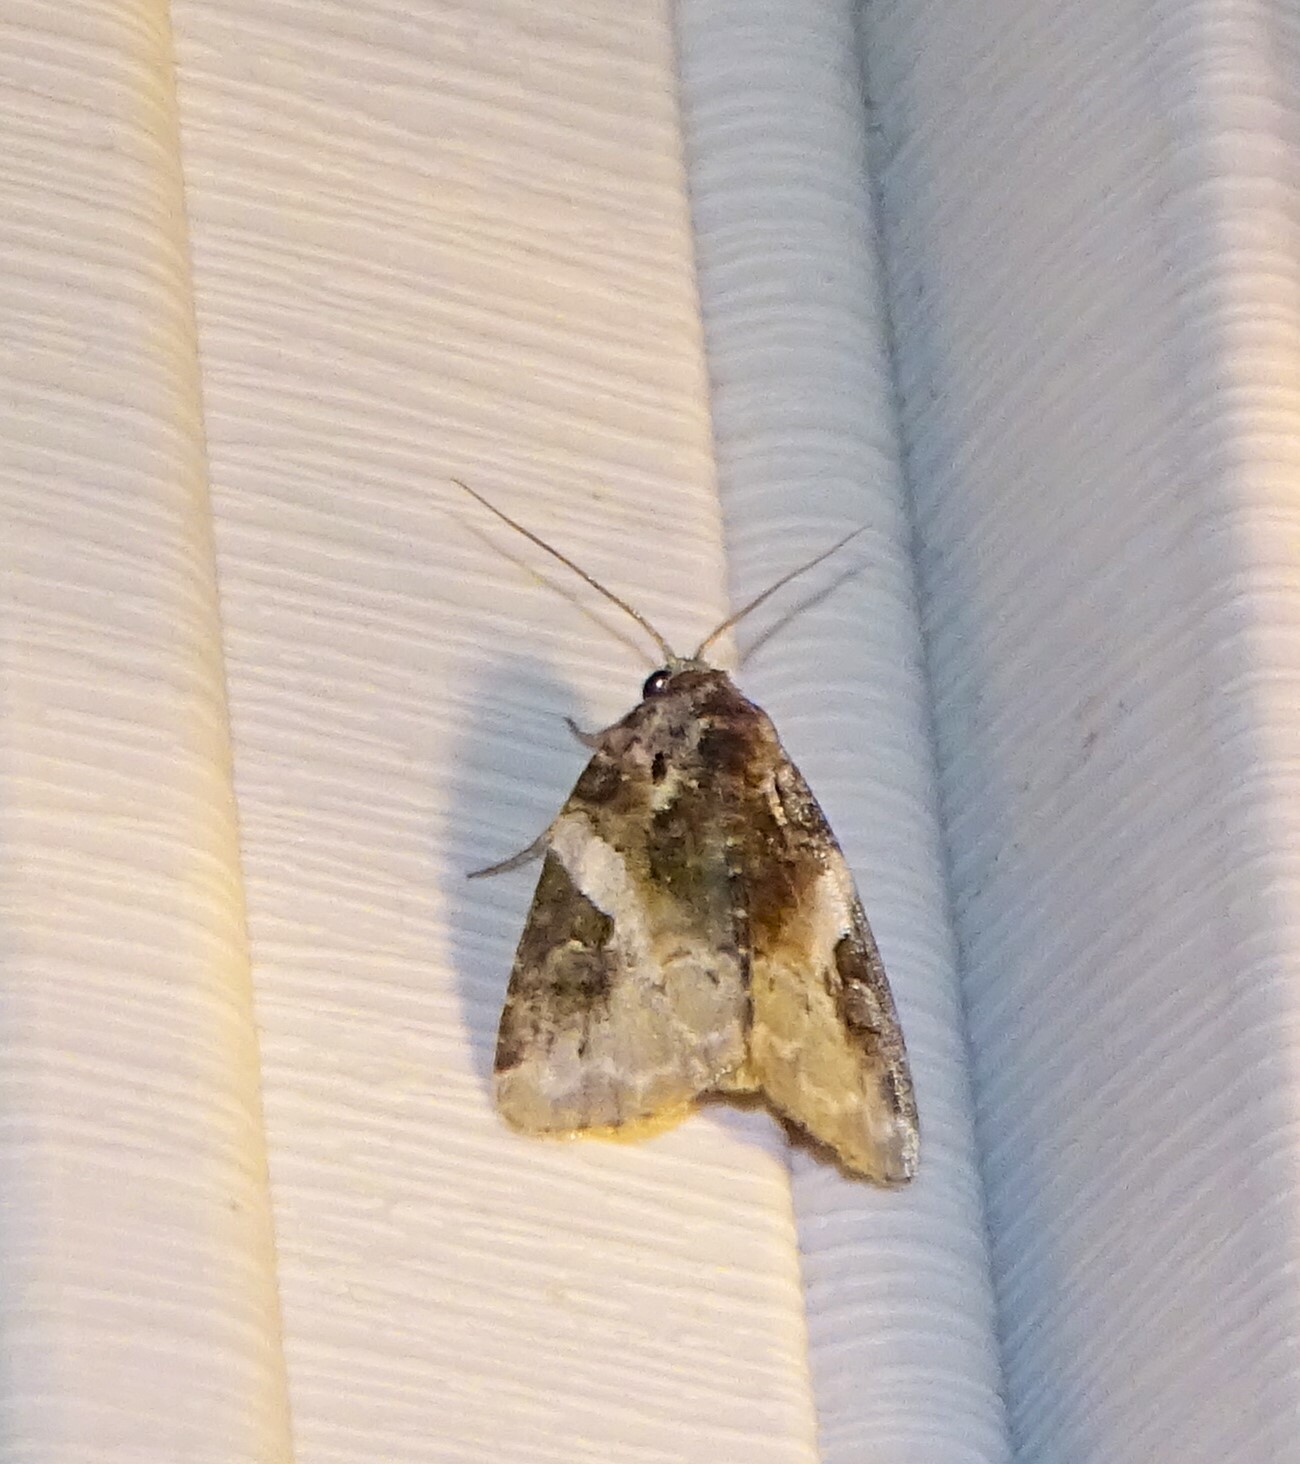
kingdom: Animalia
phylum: Arthropoda
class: Insecta
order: Lepidoptera
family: Noctuidae
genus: Pseudeustrotia
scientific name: Pseudeustrotia carneola
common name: Pink-barred lithacodia moth
